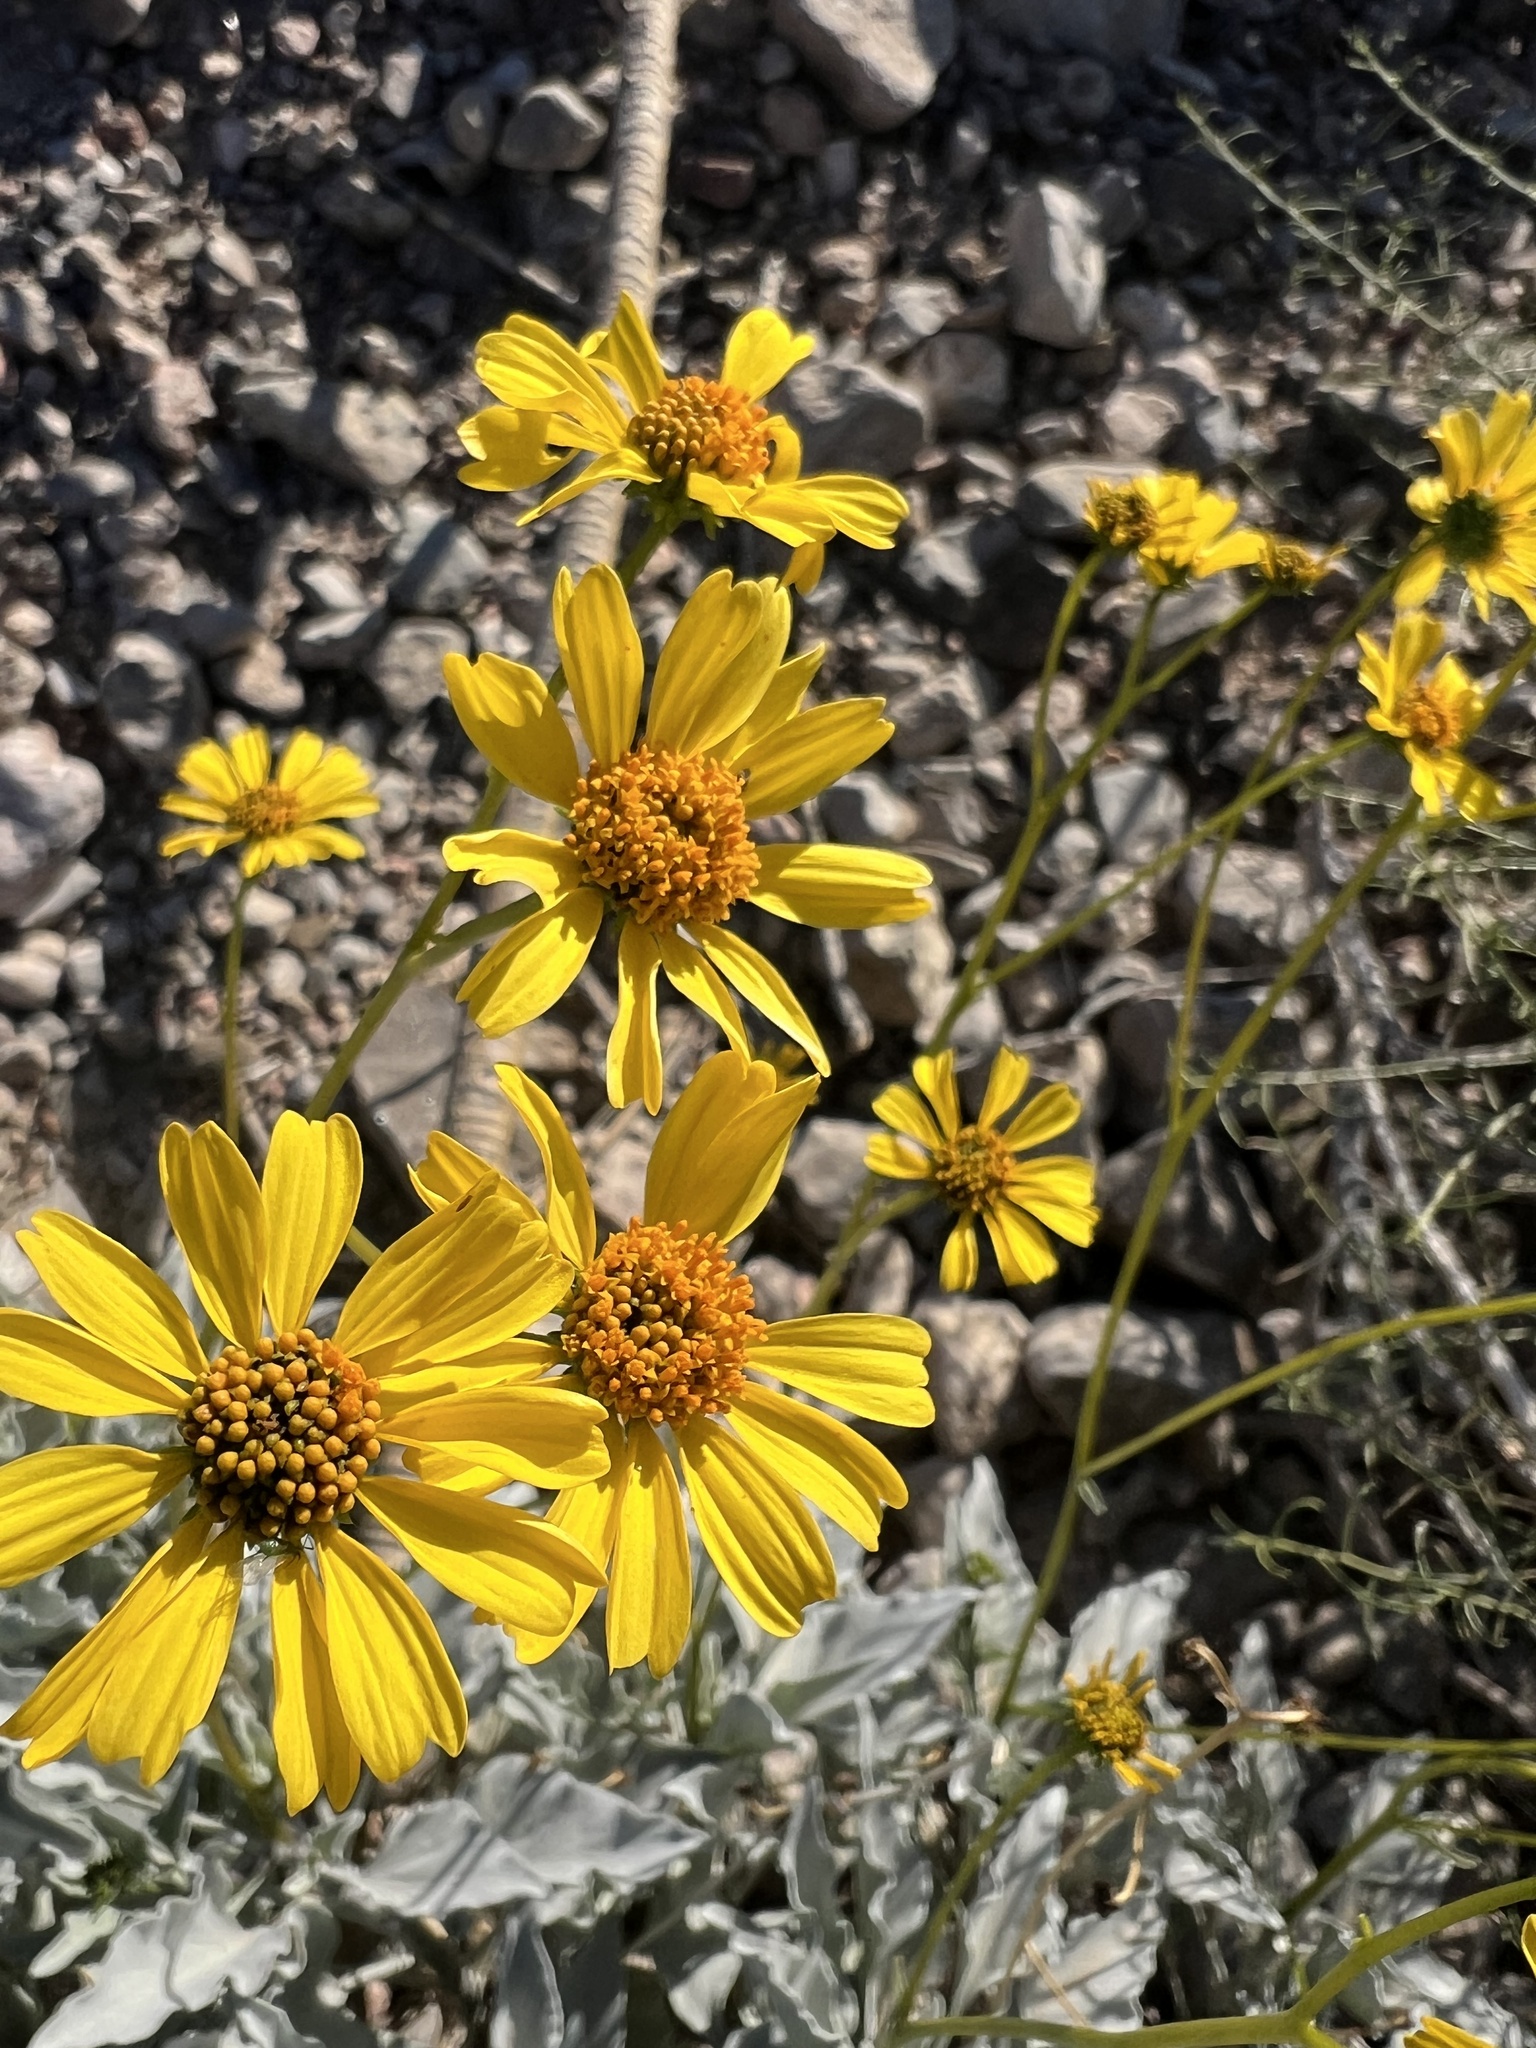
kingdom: Plantae
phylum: Tracheophyta
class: Magnoliopsida
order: Asterales
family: Asteraceae
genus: Encelia
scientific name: Encelia farinosa
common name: Brittlebush
